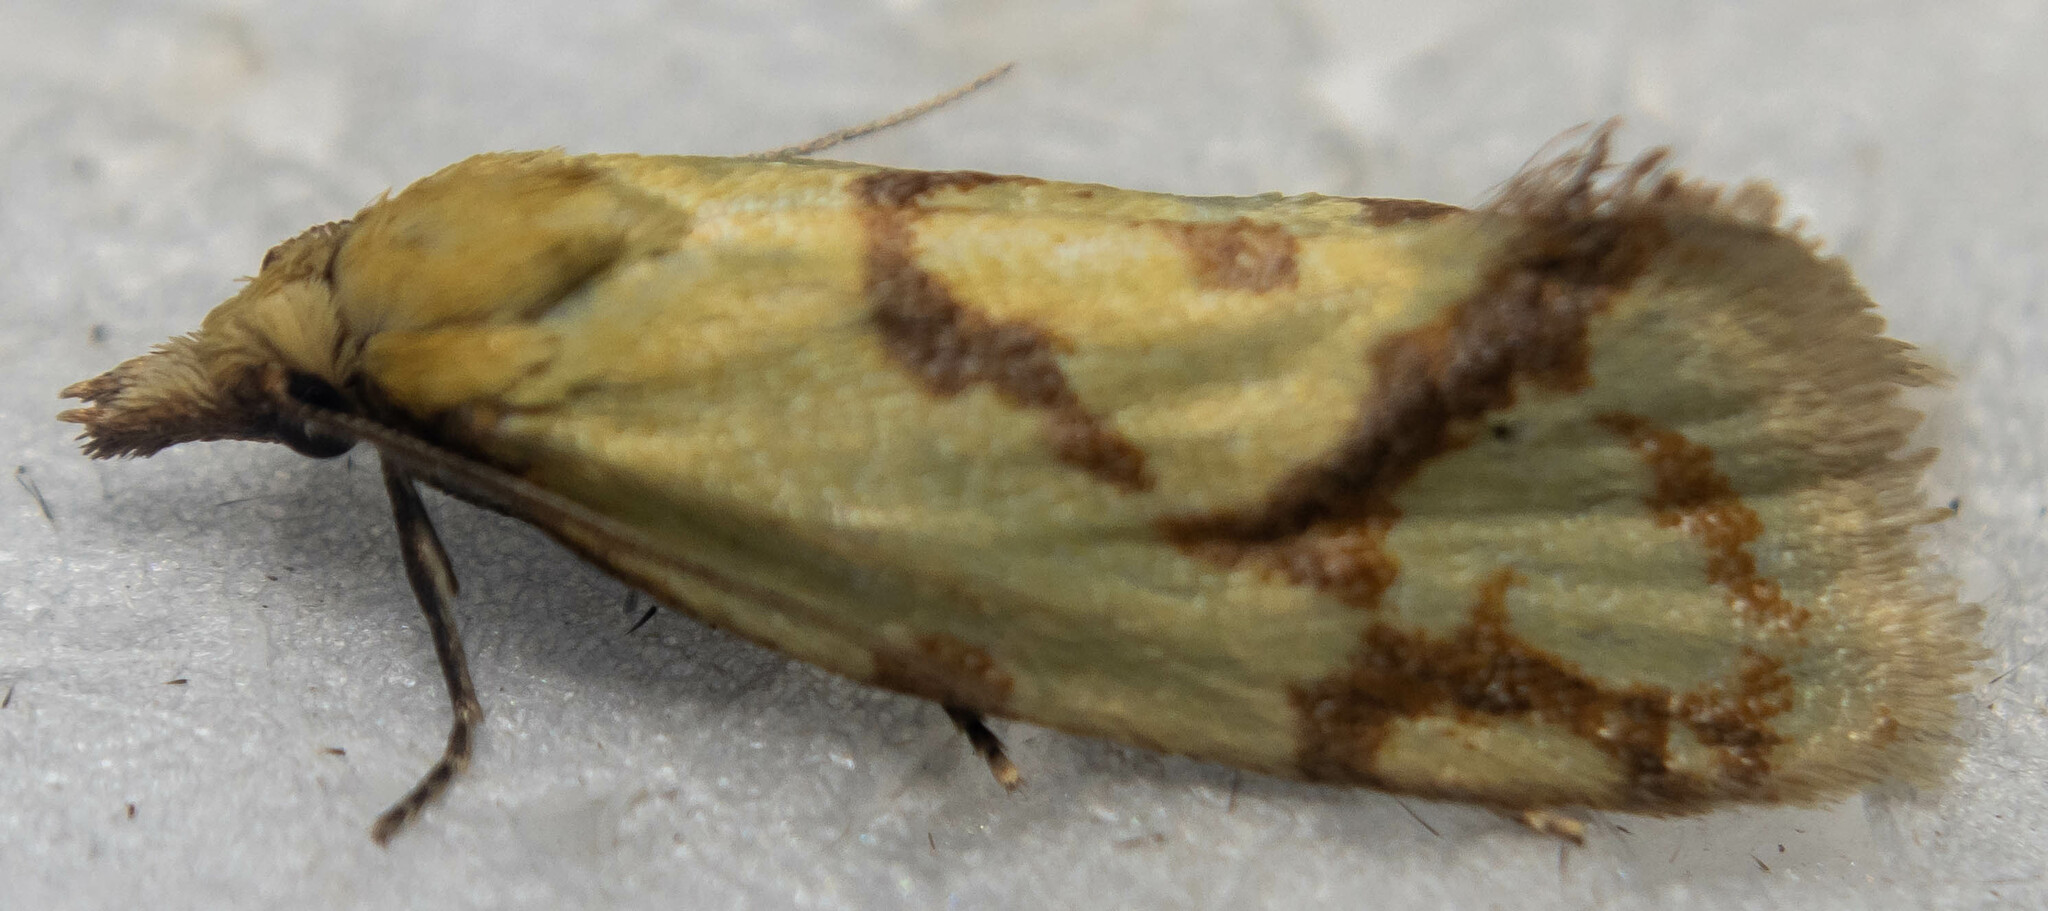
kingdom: Animalia
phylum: Arthropoda
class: Insecta
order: Lepidoptera
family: Tortricidae
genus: Agapeta
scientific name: Agapeta hamana
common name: Common yellow conch
